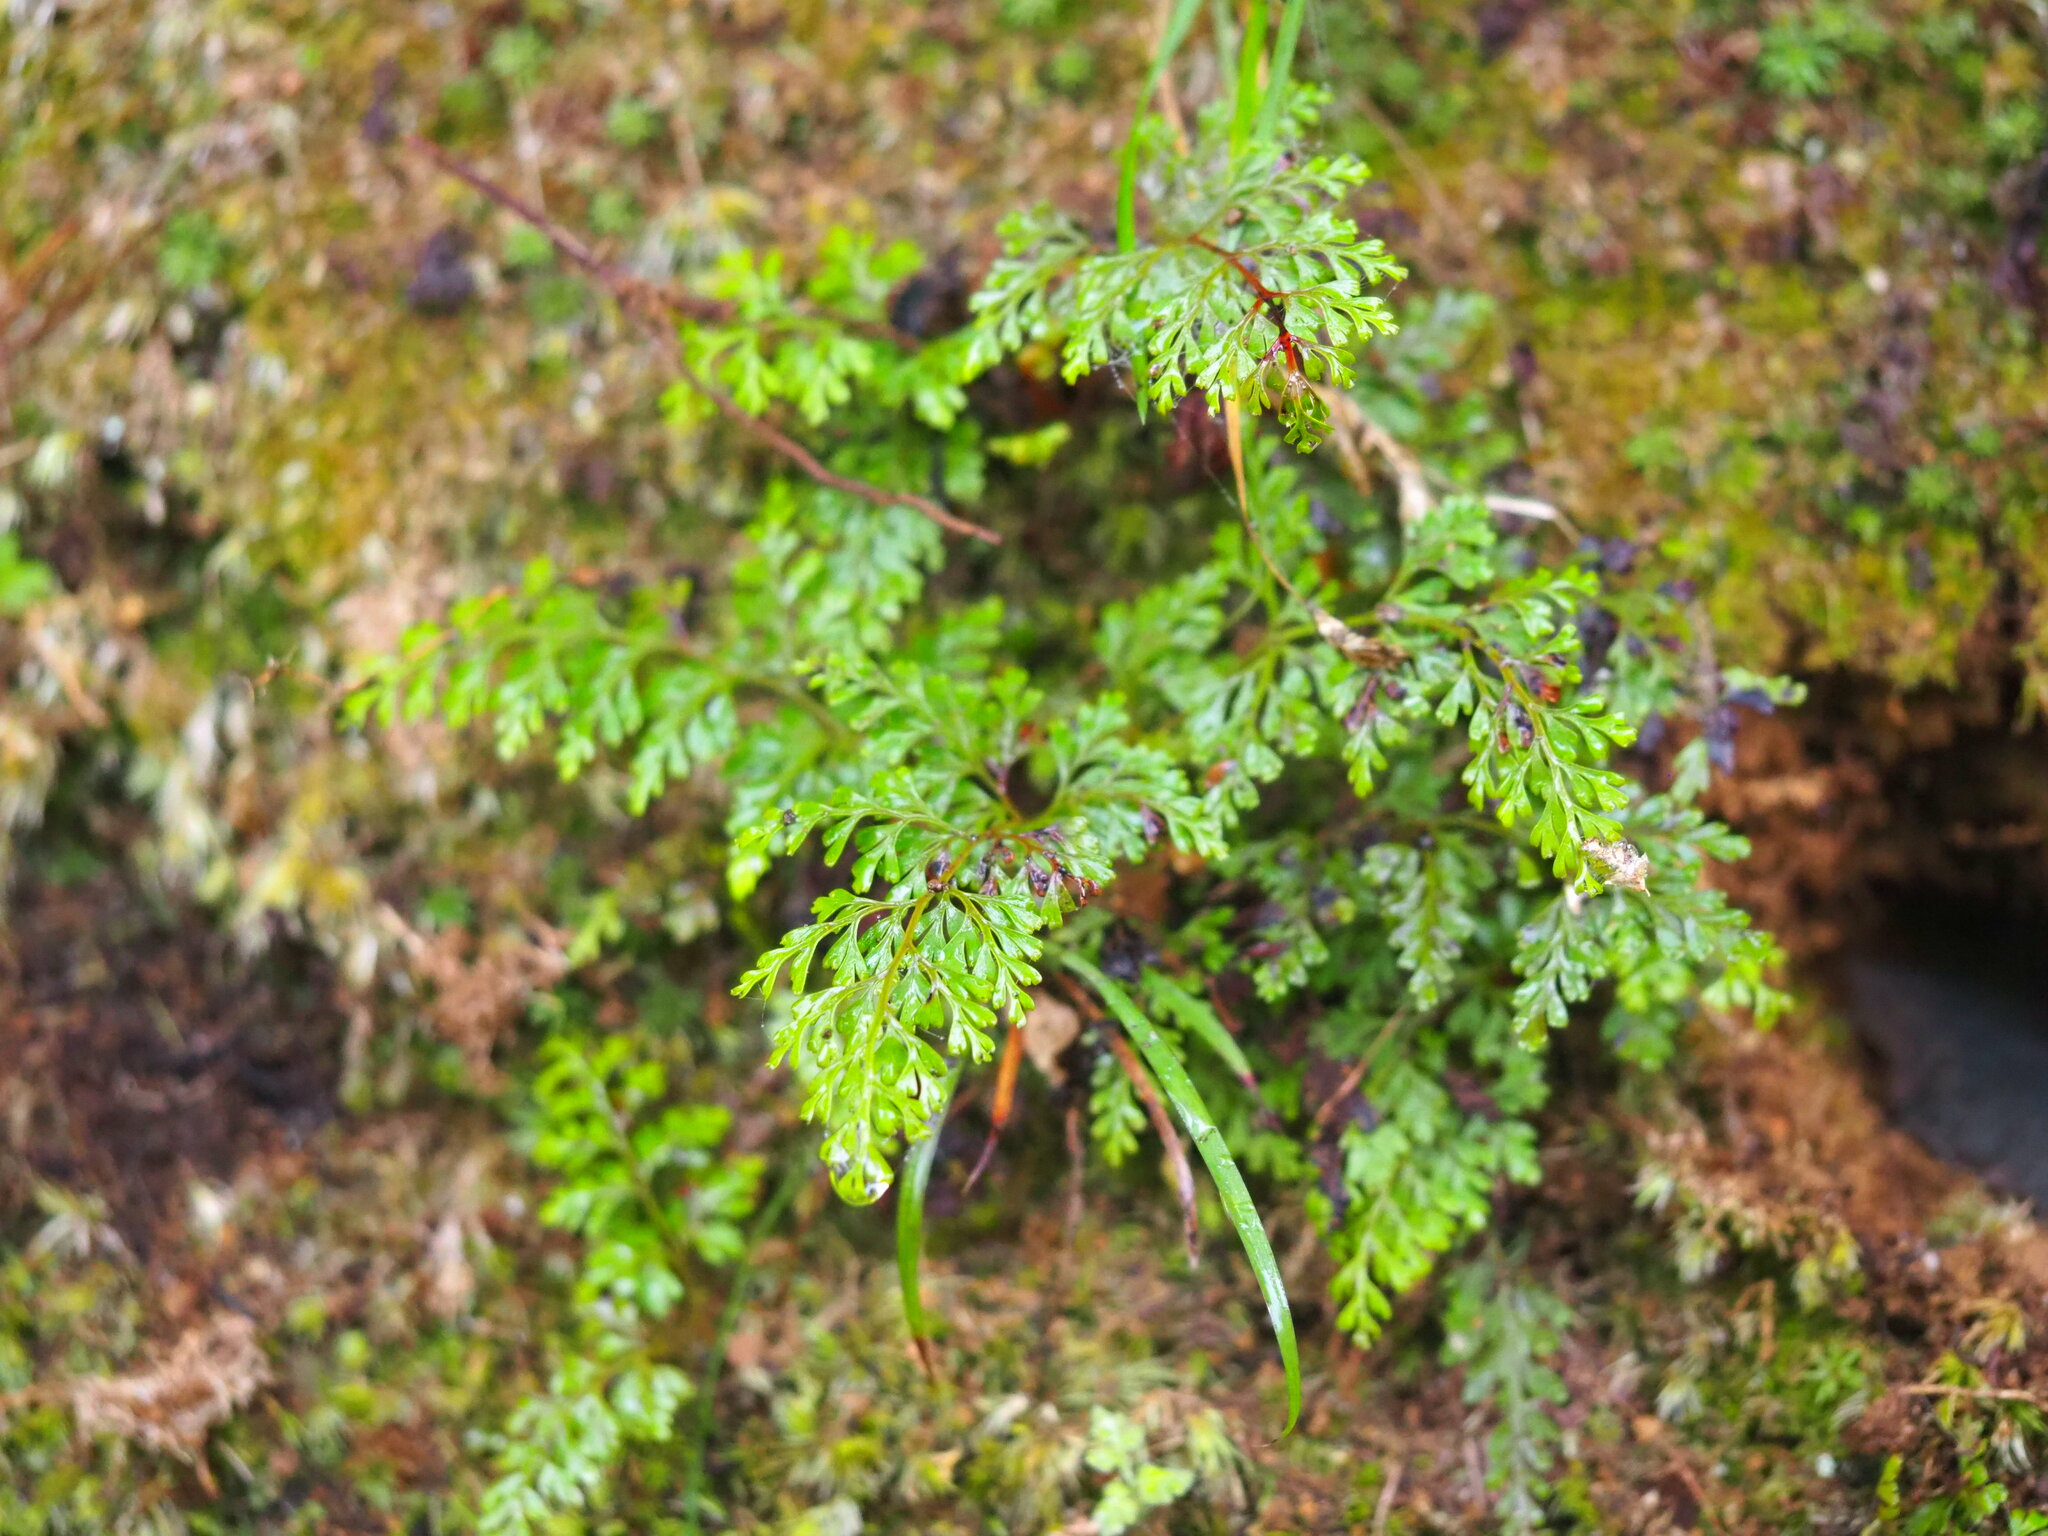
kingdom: Plantae
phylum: Tracheophyta
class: Polypodiopsida
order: Polypodiales
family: Lindsaeaceae
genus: Odontosoria
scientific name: Odontosoria chinensis
